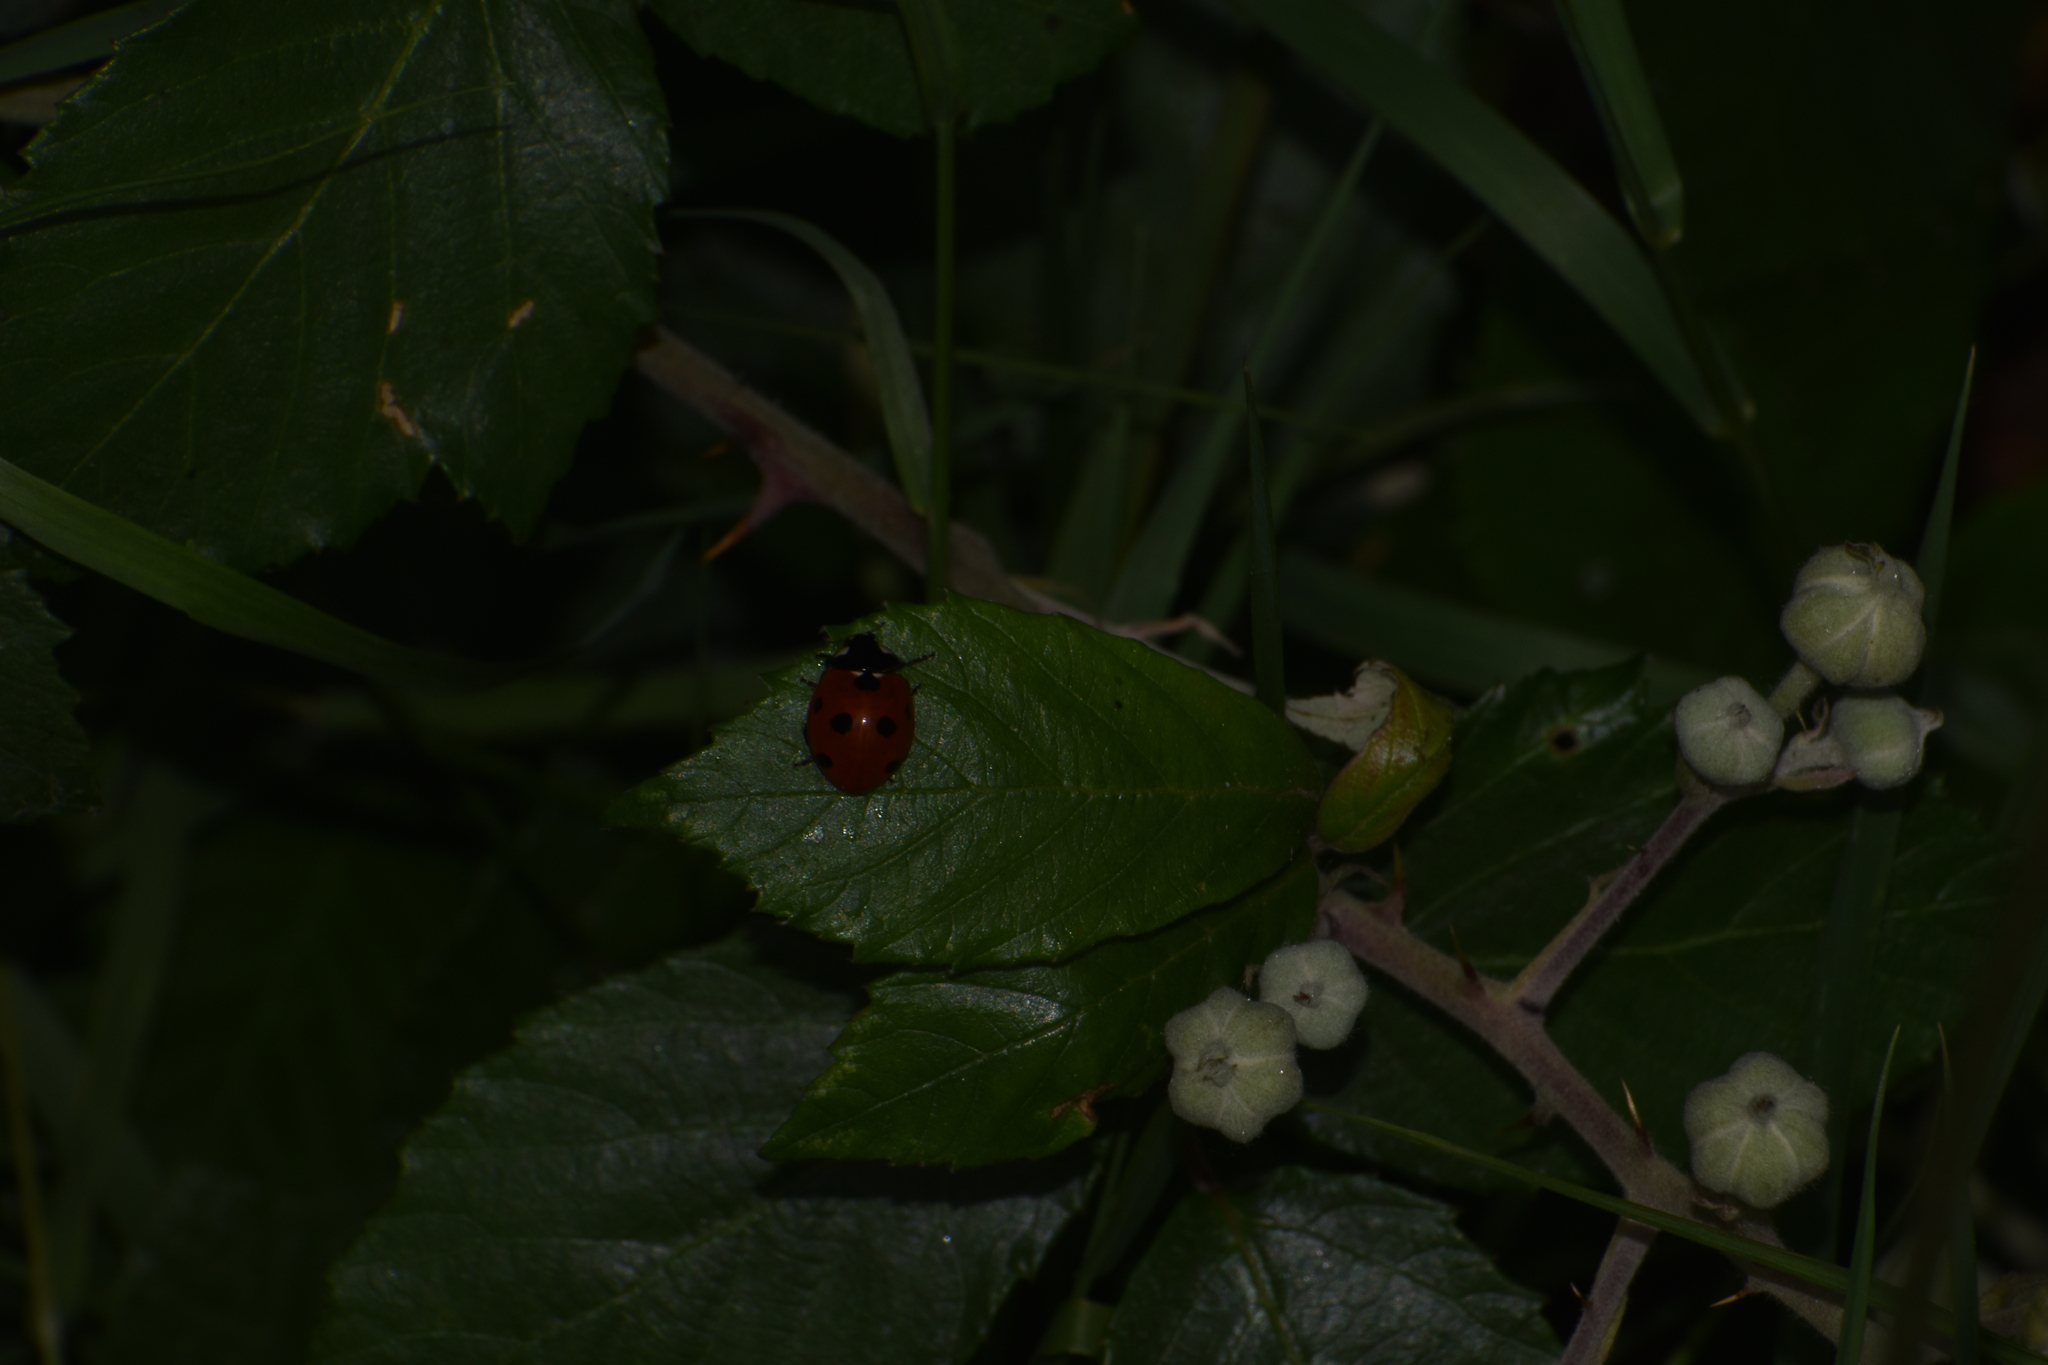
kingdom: Animalia
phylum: Arthropoda
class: Insecta
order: Coleoptera
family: Coccinellidae
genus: Coccinella
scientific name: Coccinella septempunctata
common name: Sevenspotted lady beetle
